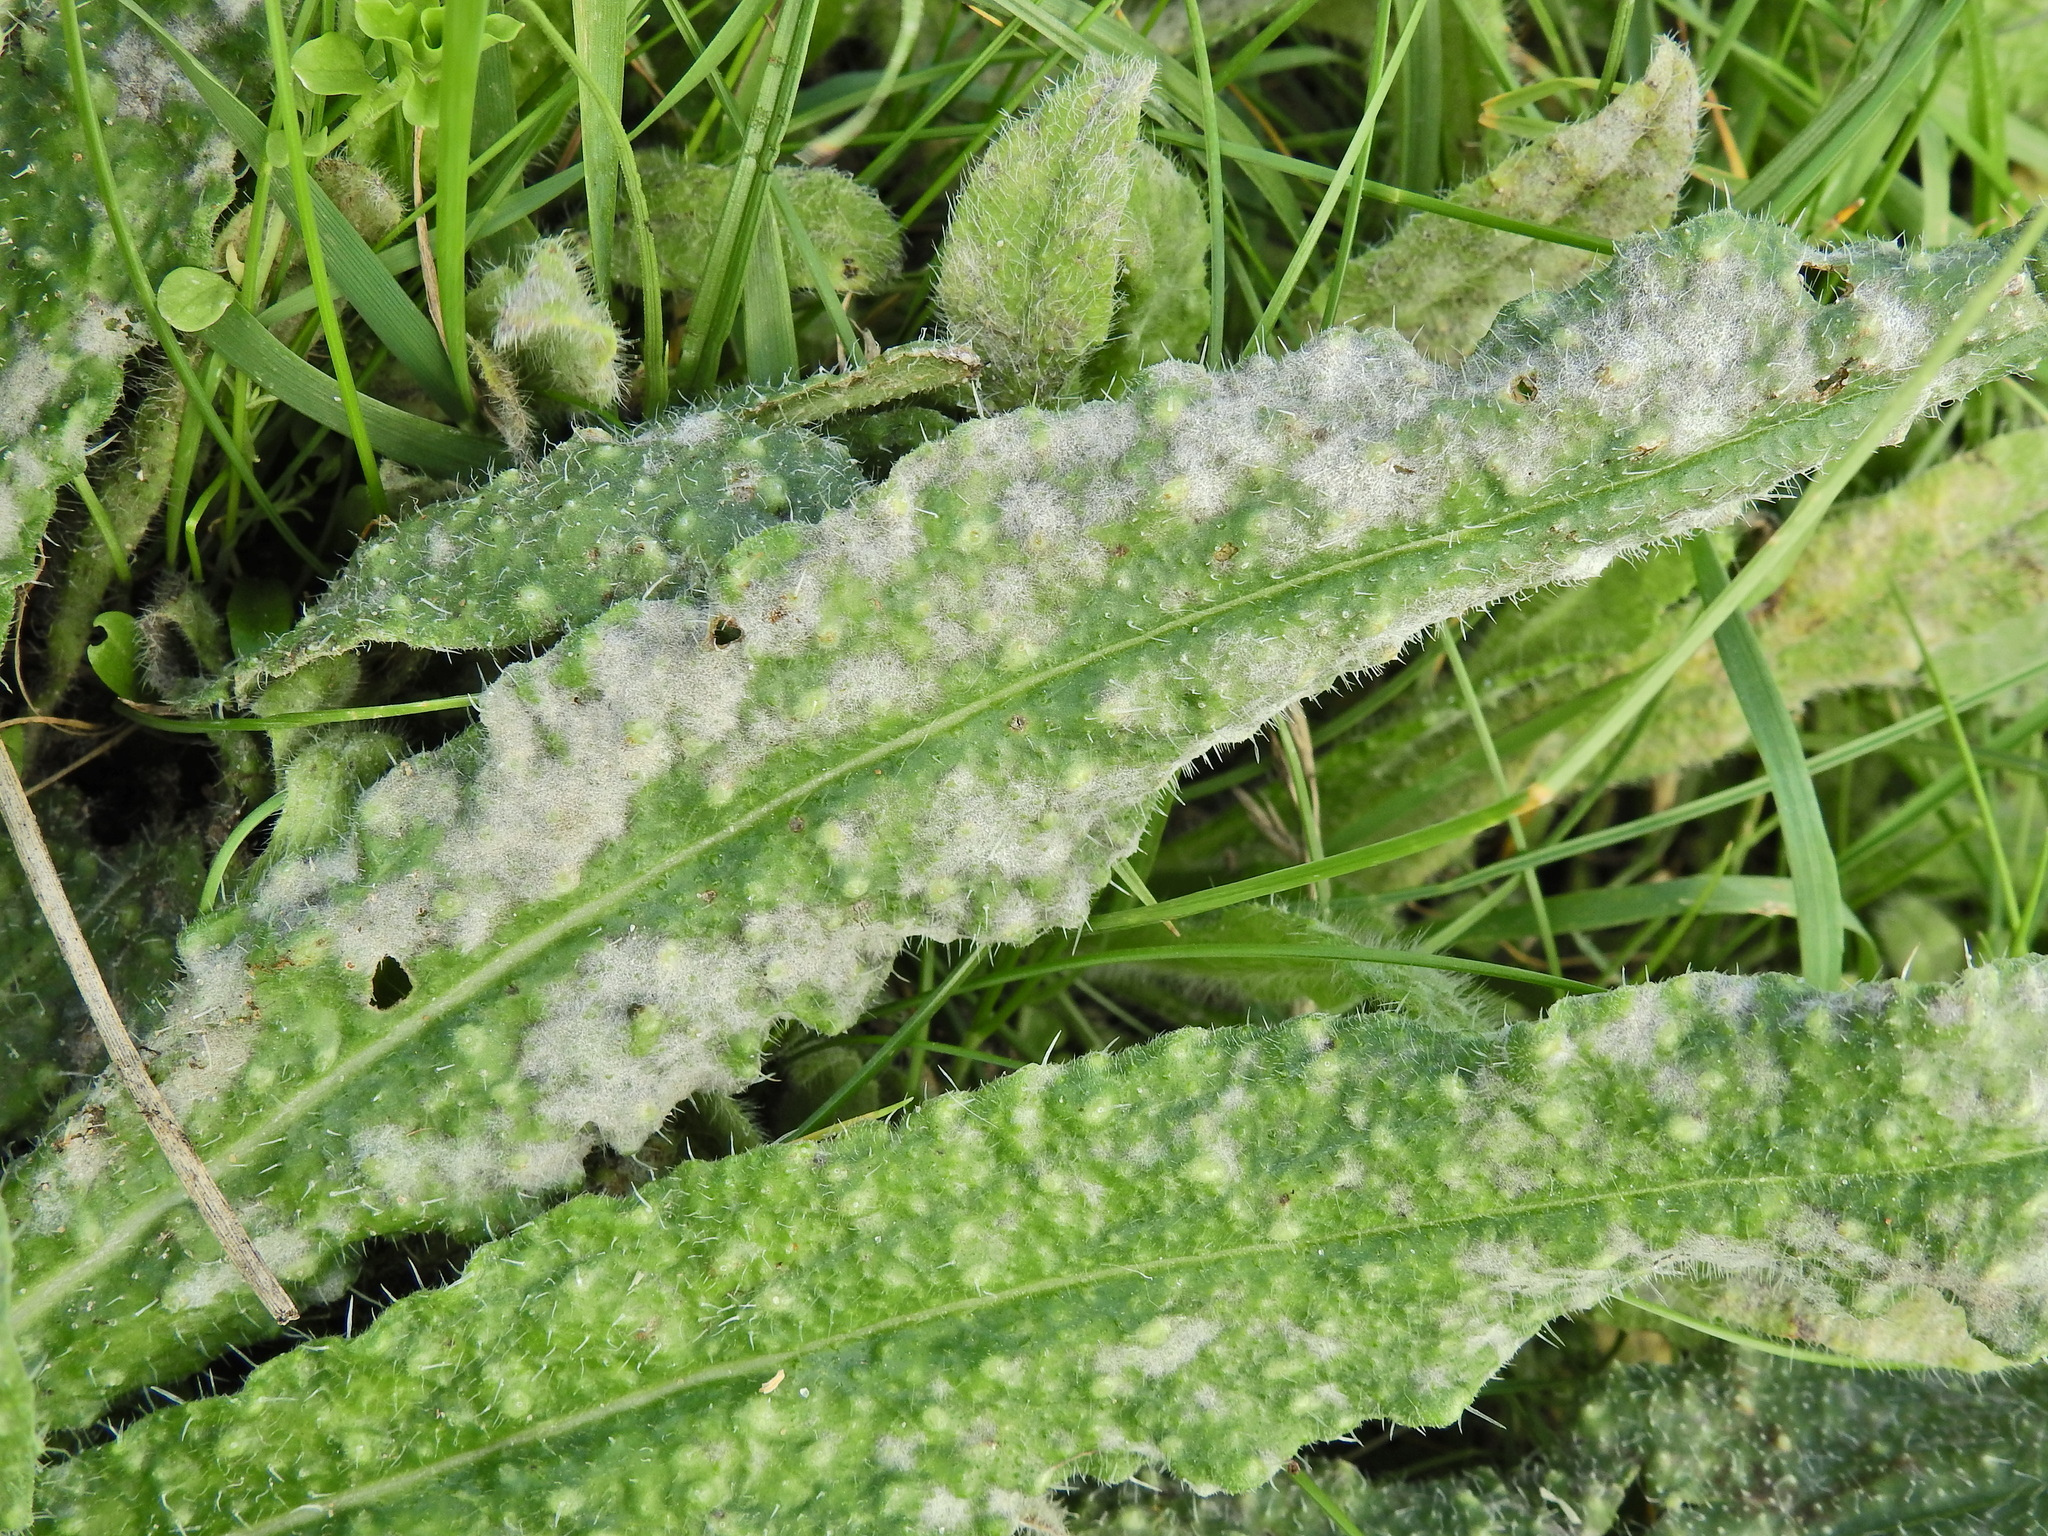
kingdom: Fungi
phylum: Ascomycota
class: Leotiomycetes
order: Helotiales
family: Erysiphaceae
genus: Golovinomyces
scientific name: Golovinomyces
